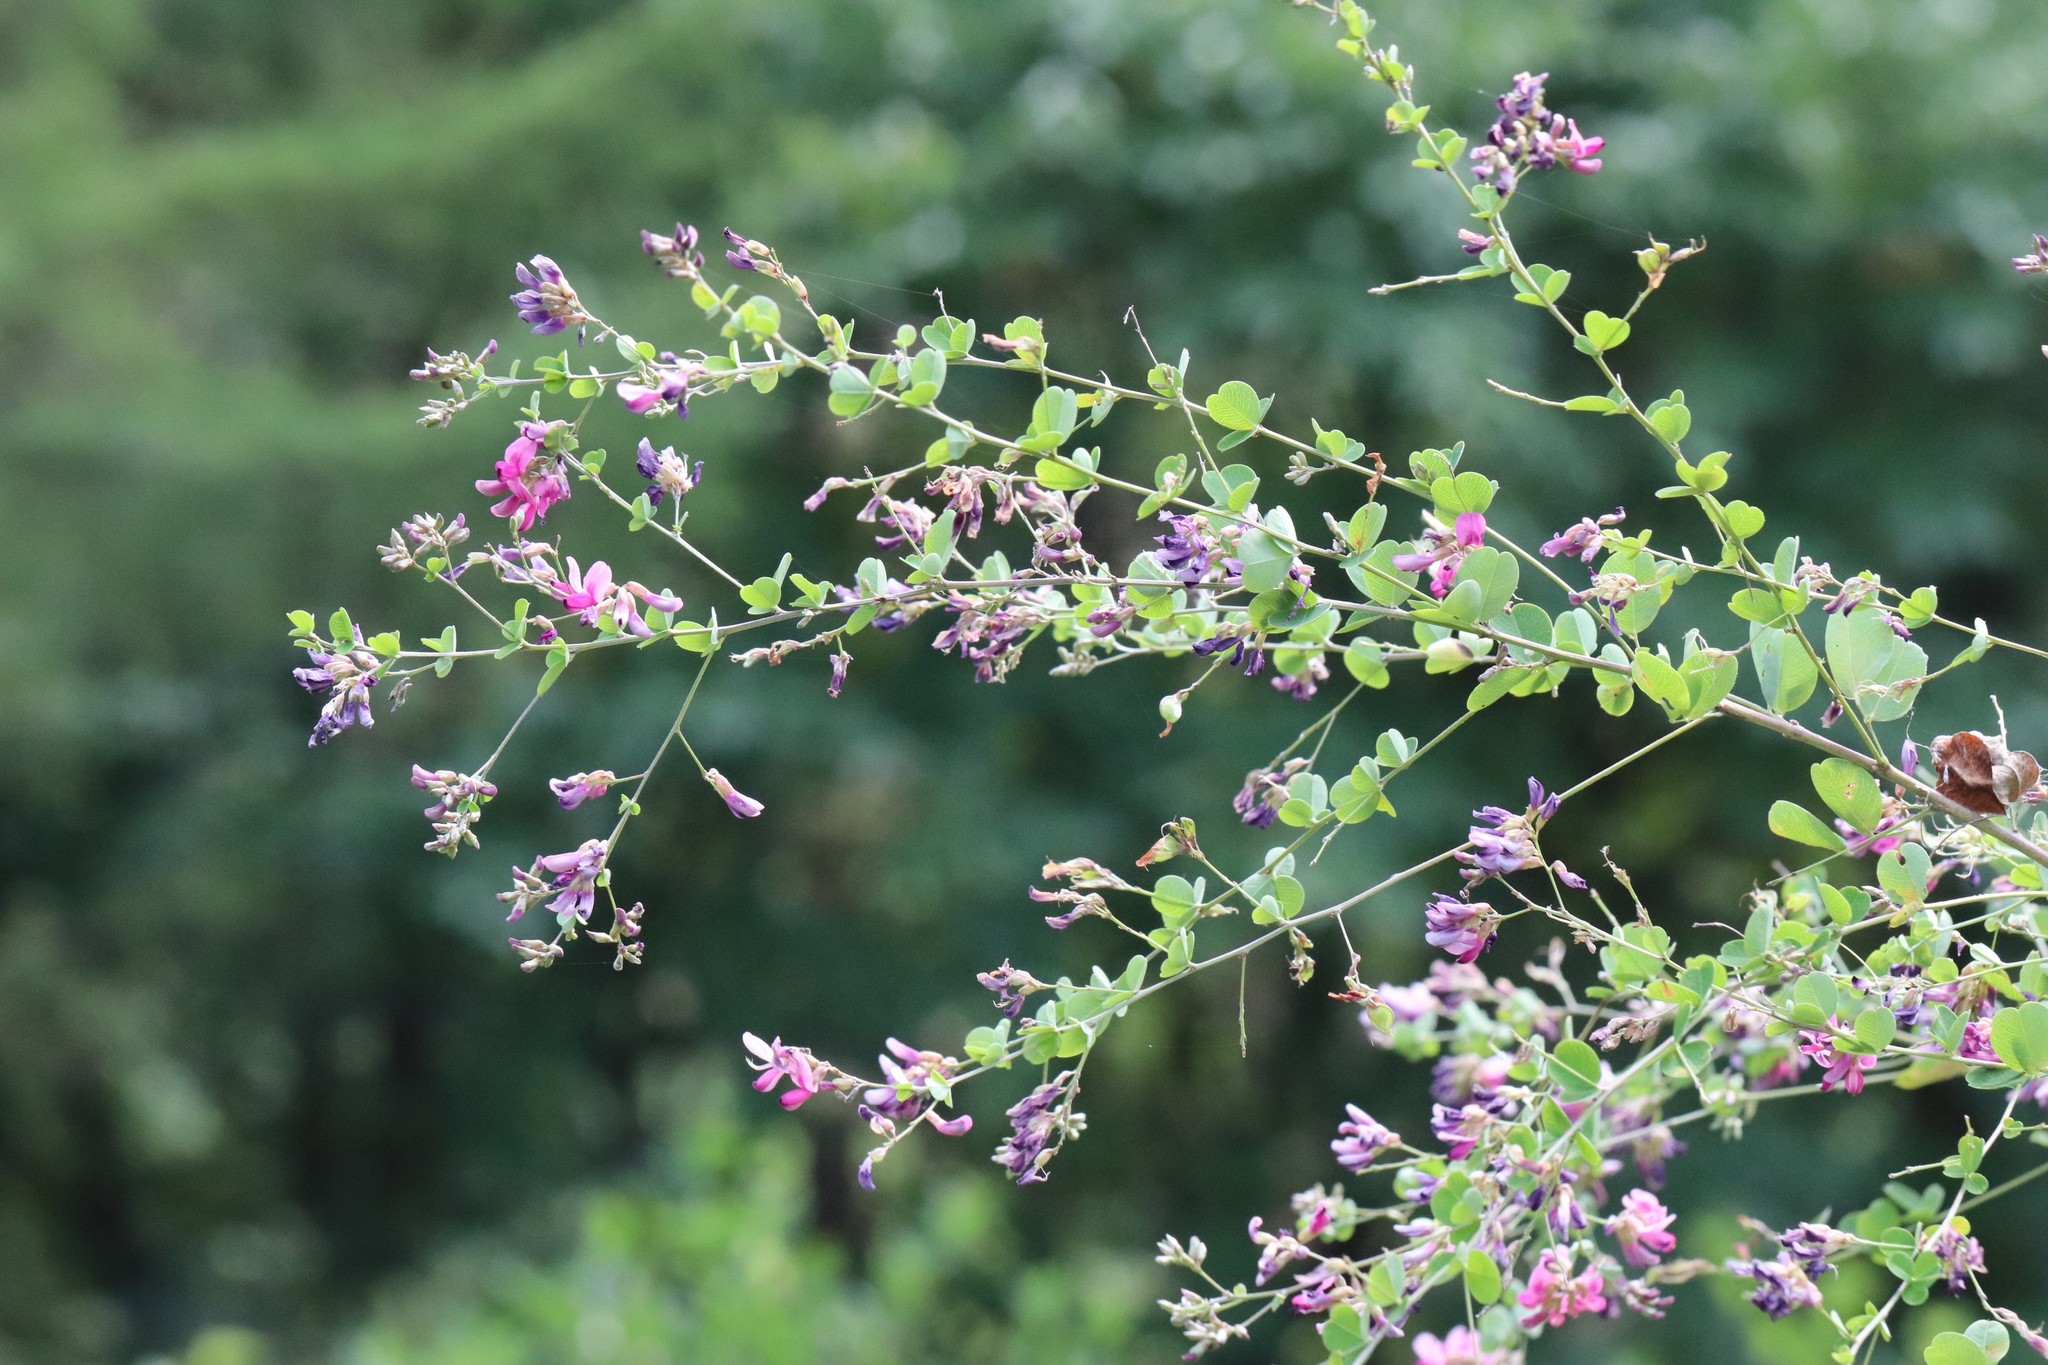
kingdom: Plantae
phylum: Tracheophyta
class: Magnoliopsida
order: Fabales
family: Fabaceae
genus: Lespedeza
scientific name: Lespedeza bicolor
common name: Shrub lespedeza
